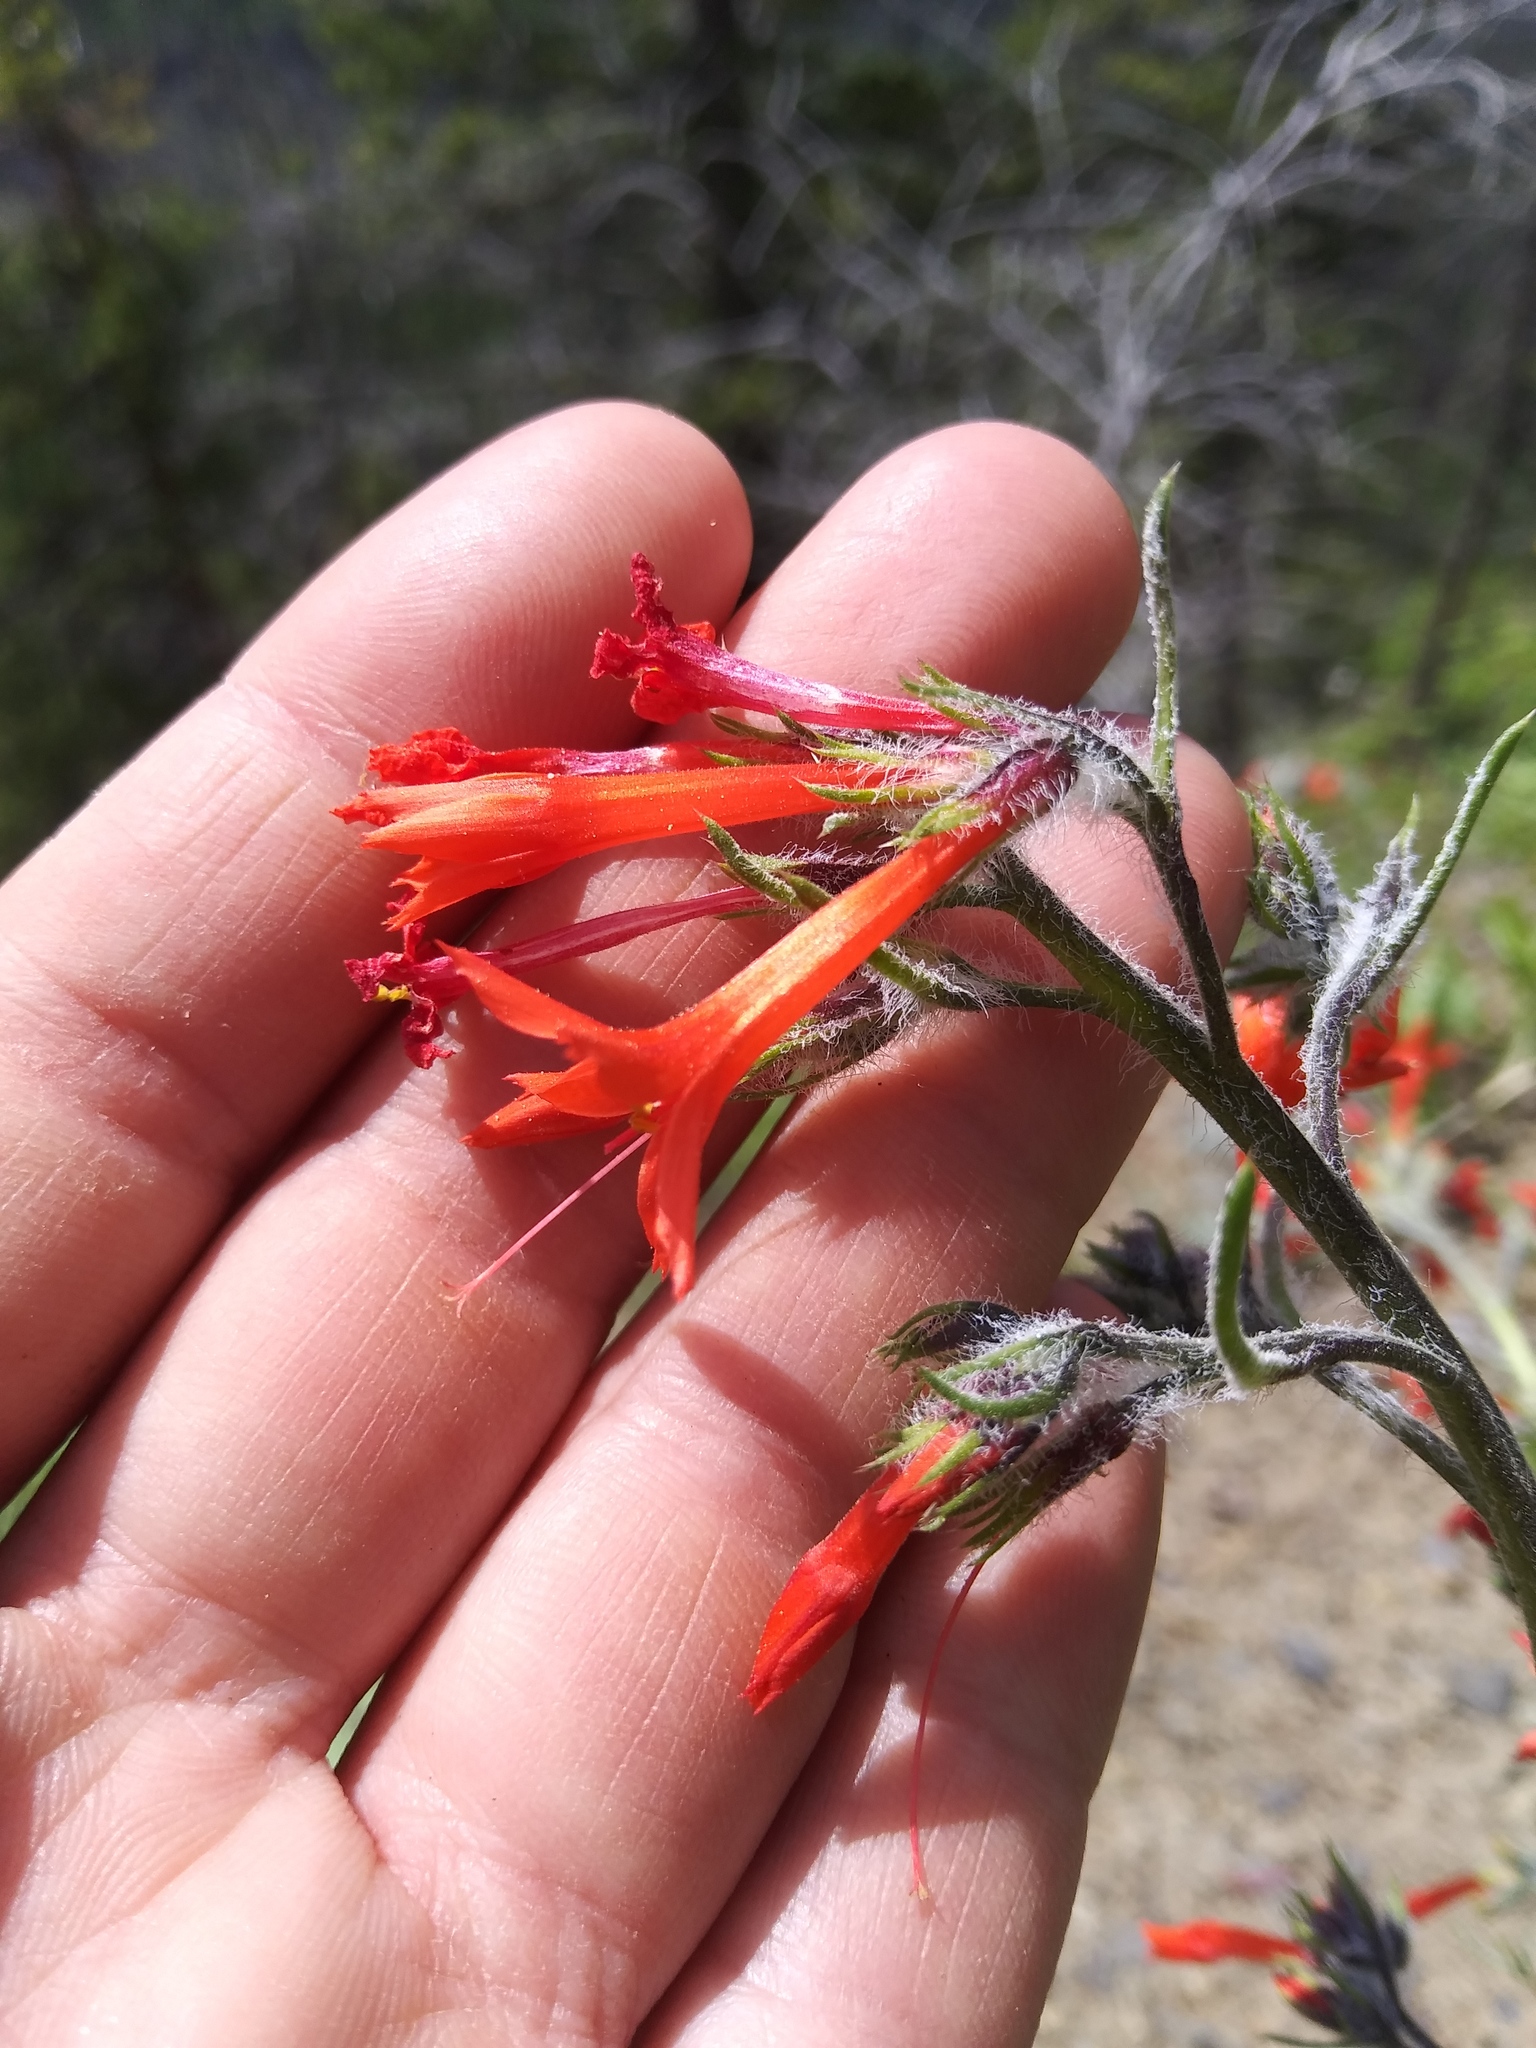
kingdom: Plantae
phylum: Tracheophyta
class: Magnoliopsida
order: Ericales
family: Polemoniaceae
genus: Ipomopsis
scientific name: Ipomopsis aggregata
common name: Scarlet gilia
